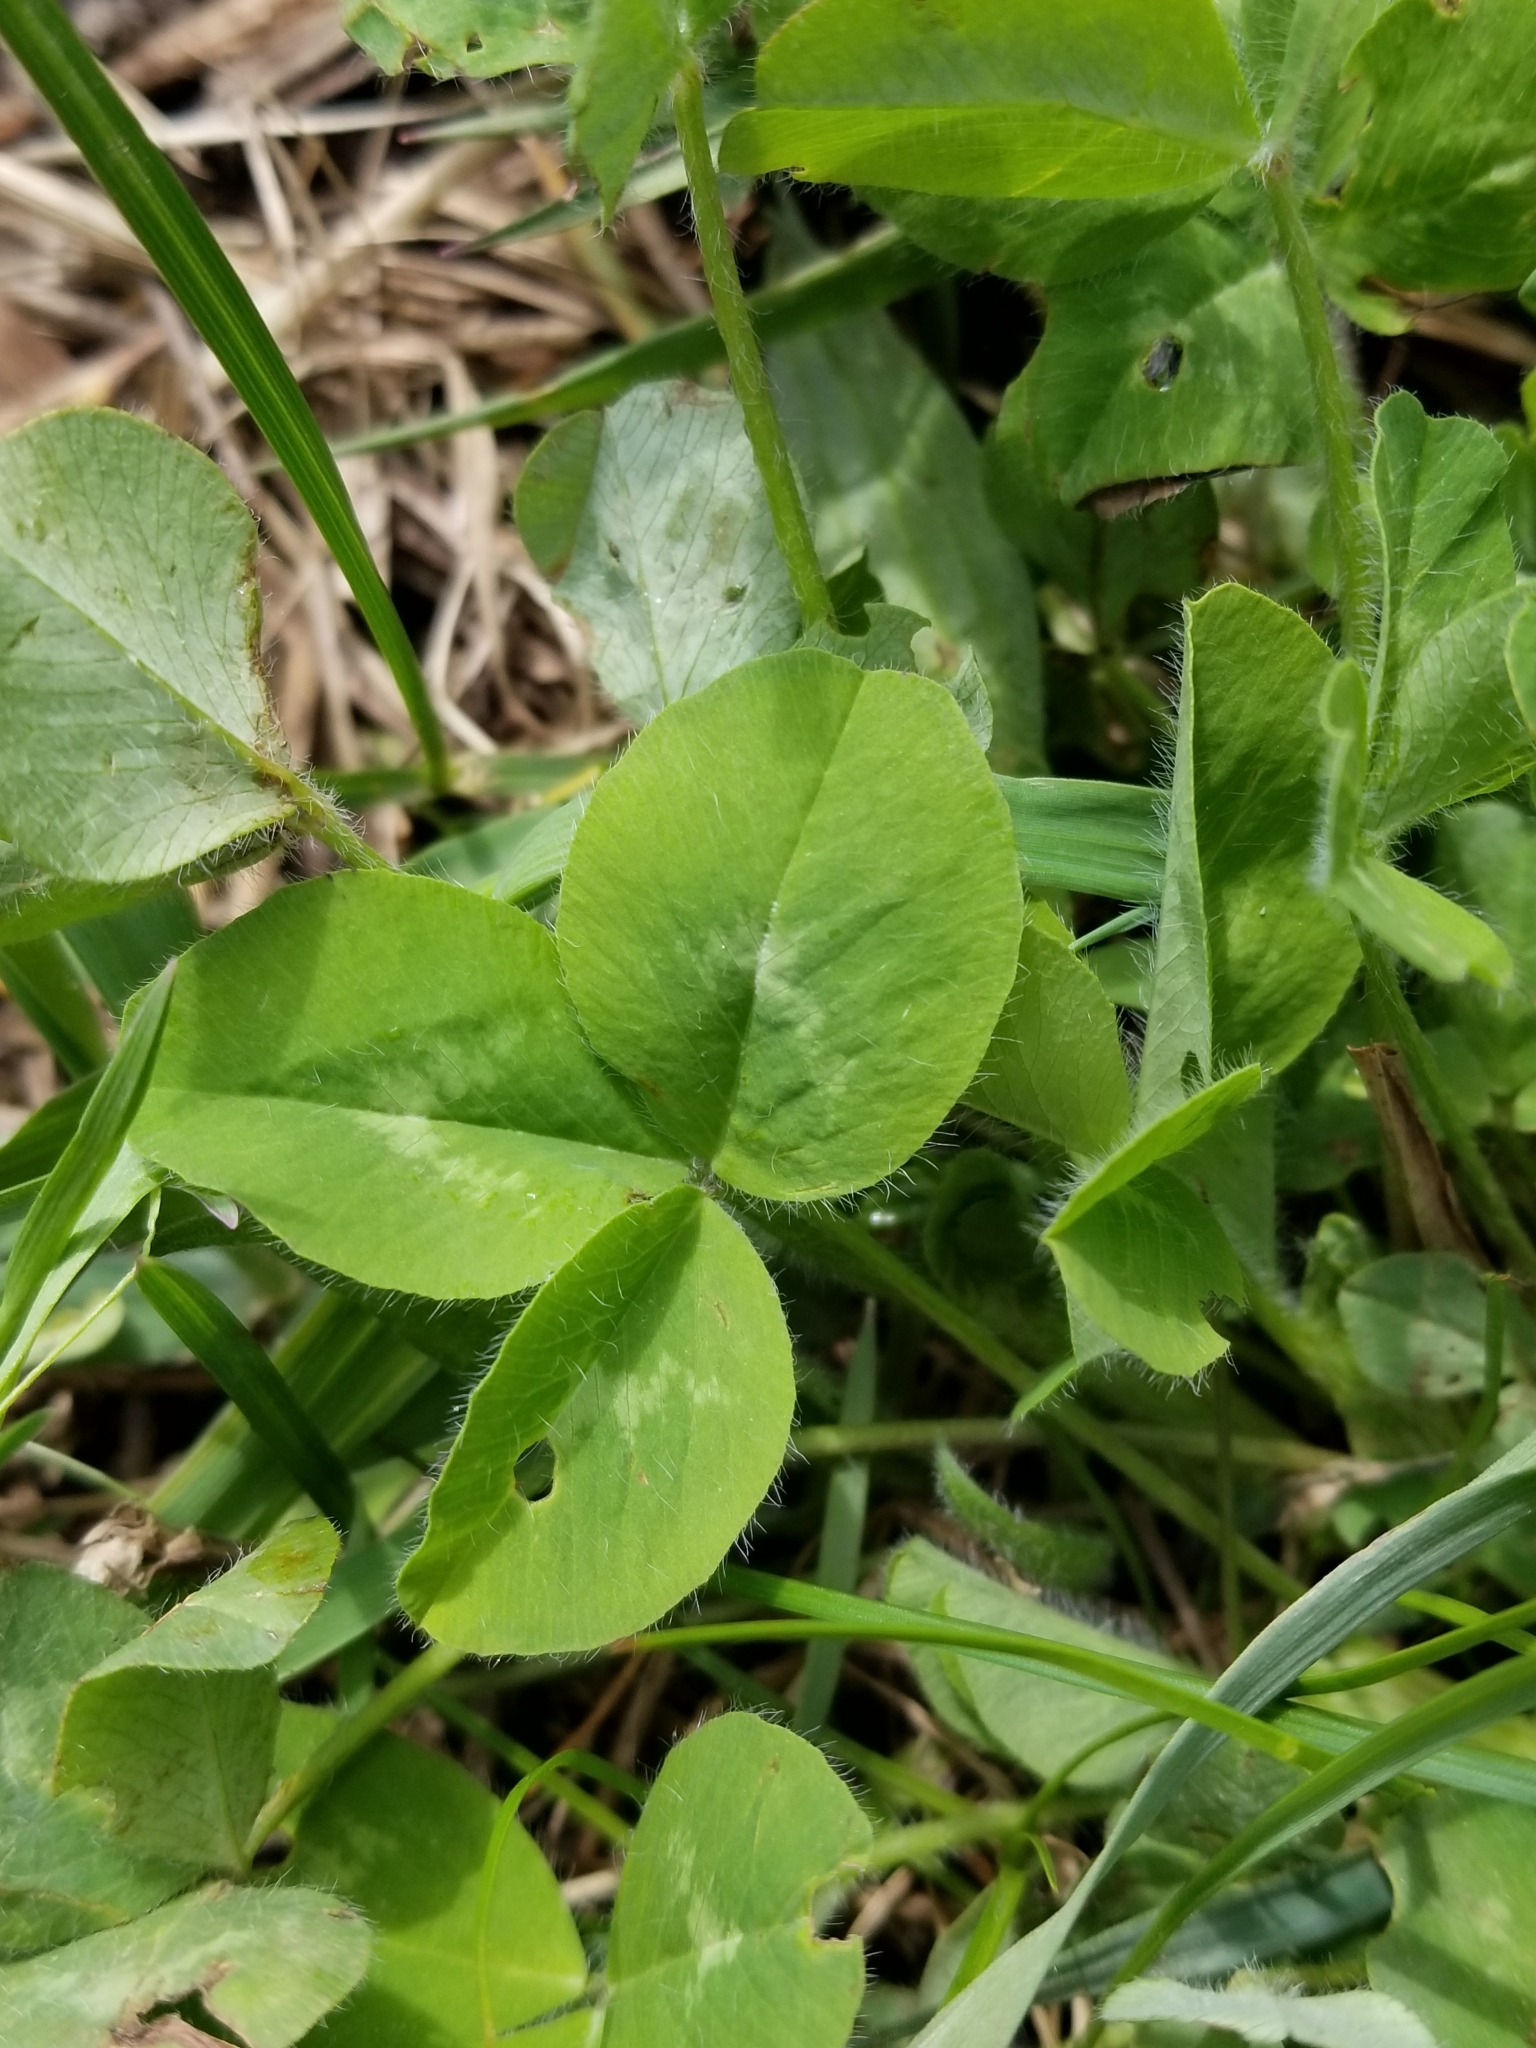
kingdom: Plantae
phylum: Tracheophyta
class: Magnoliopsida
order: Fabales
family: Fabaceae
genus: Trifolium
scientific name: Trifolium pratense
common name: Red clover
